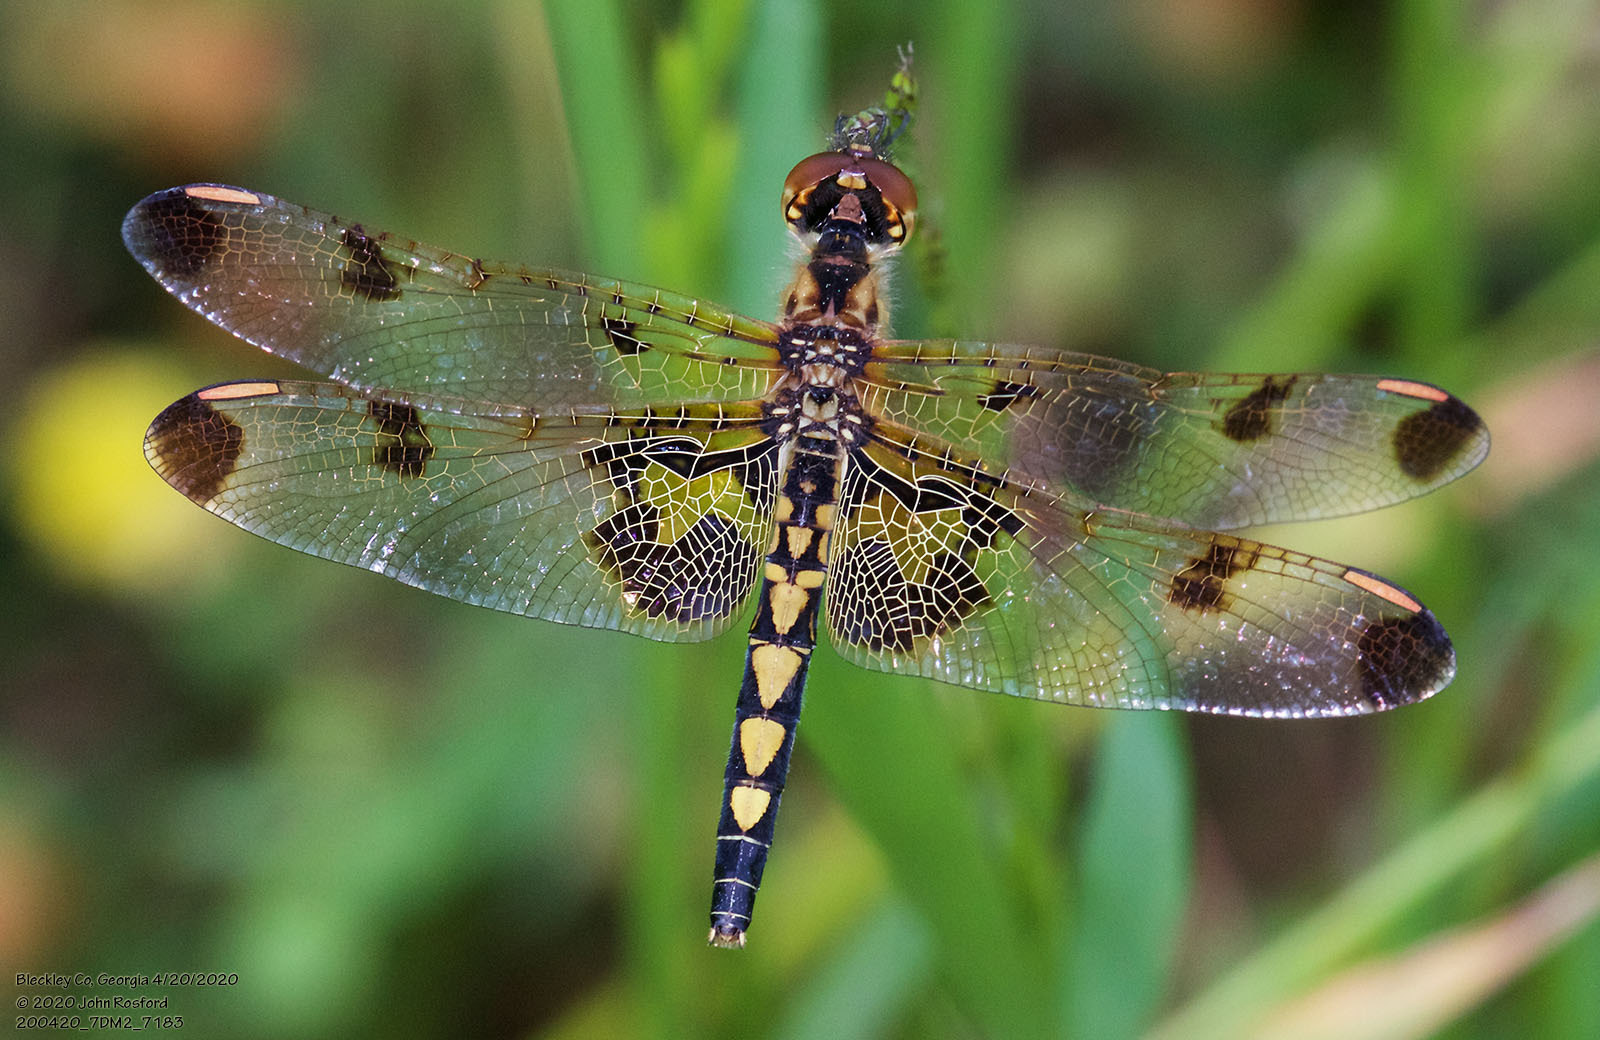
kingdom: Animalia
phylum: Arthropoda
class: Insecta
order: Odonata
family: Libellulidae
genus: Celithemis
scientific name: Celithemis elisa
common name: Calico pennant
